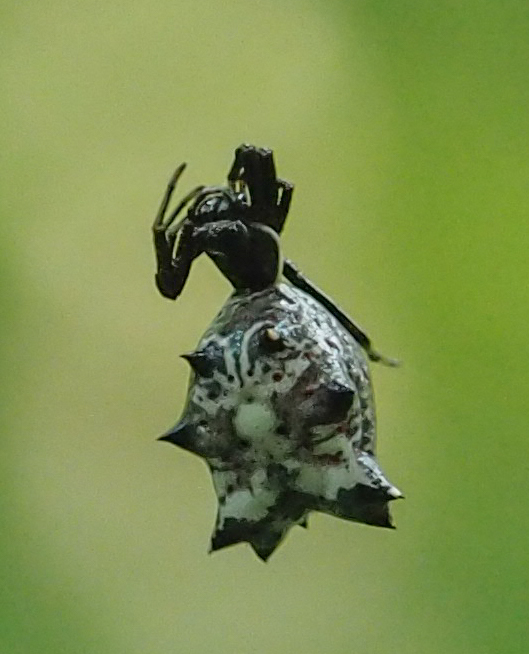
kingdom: Animalia
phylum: Arthropoda
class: Arachnida
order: Araneae
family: Araneidae
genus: Micrathena
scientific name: Micrathena gracilis
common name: Orb weavers
